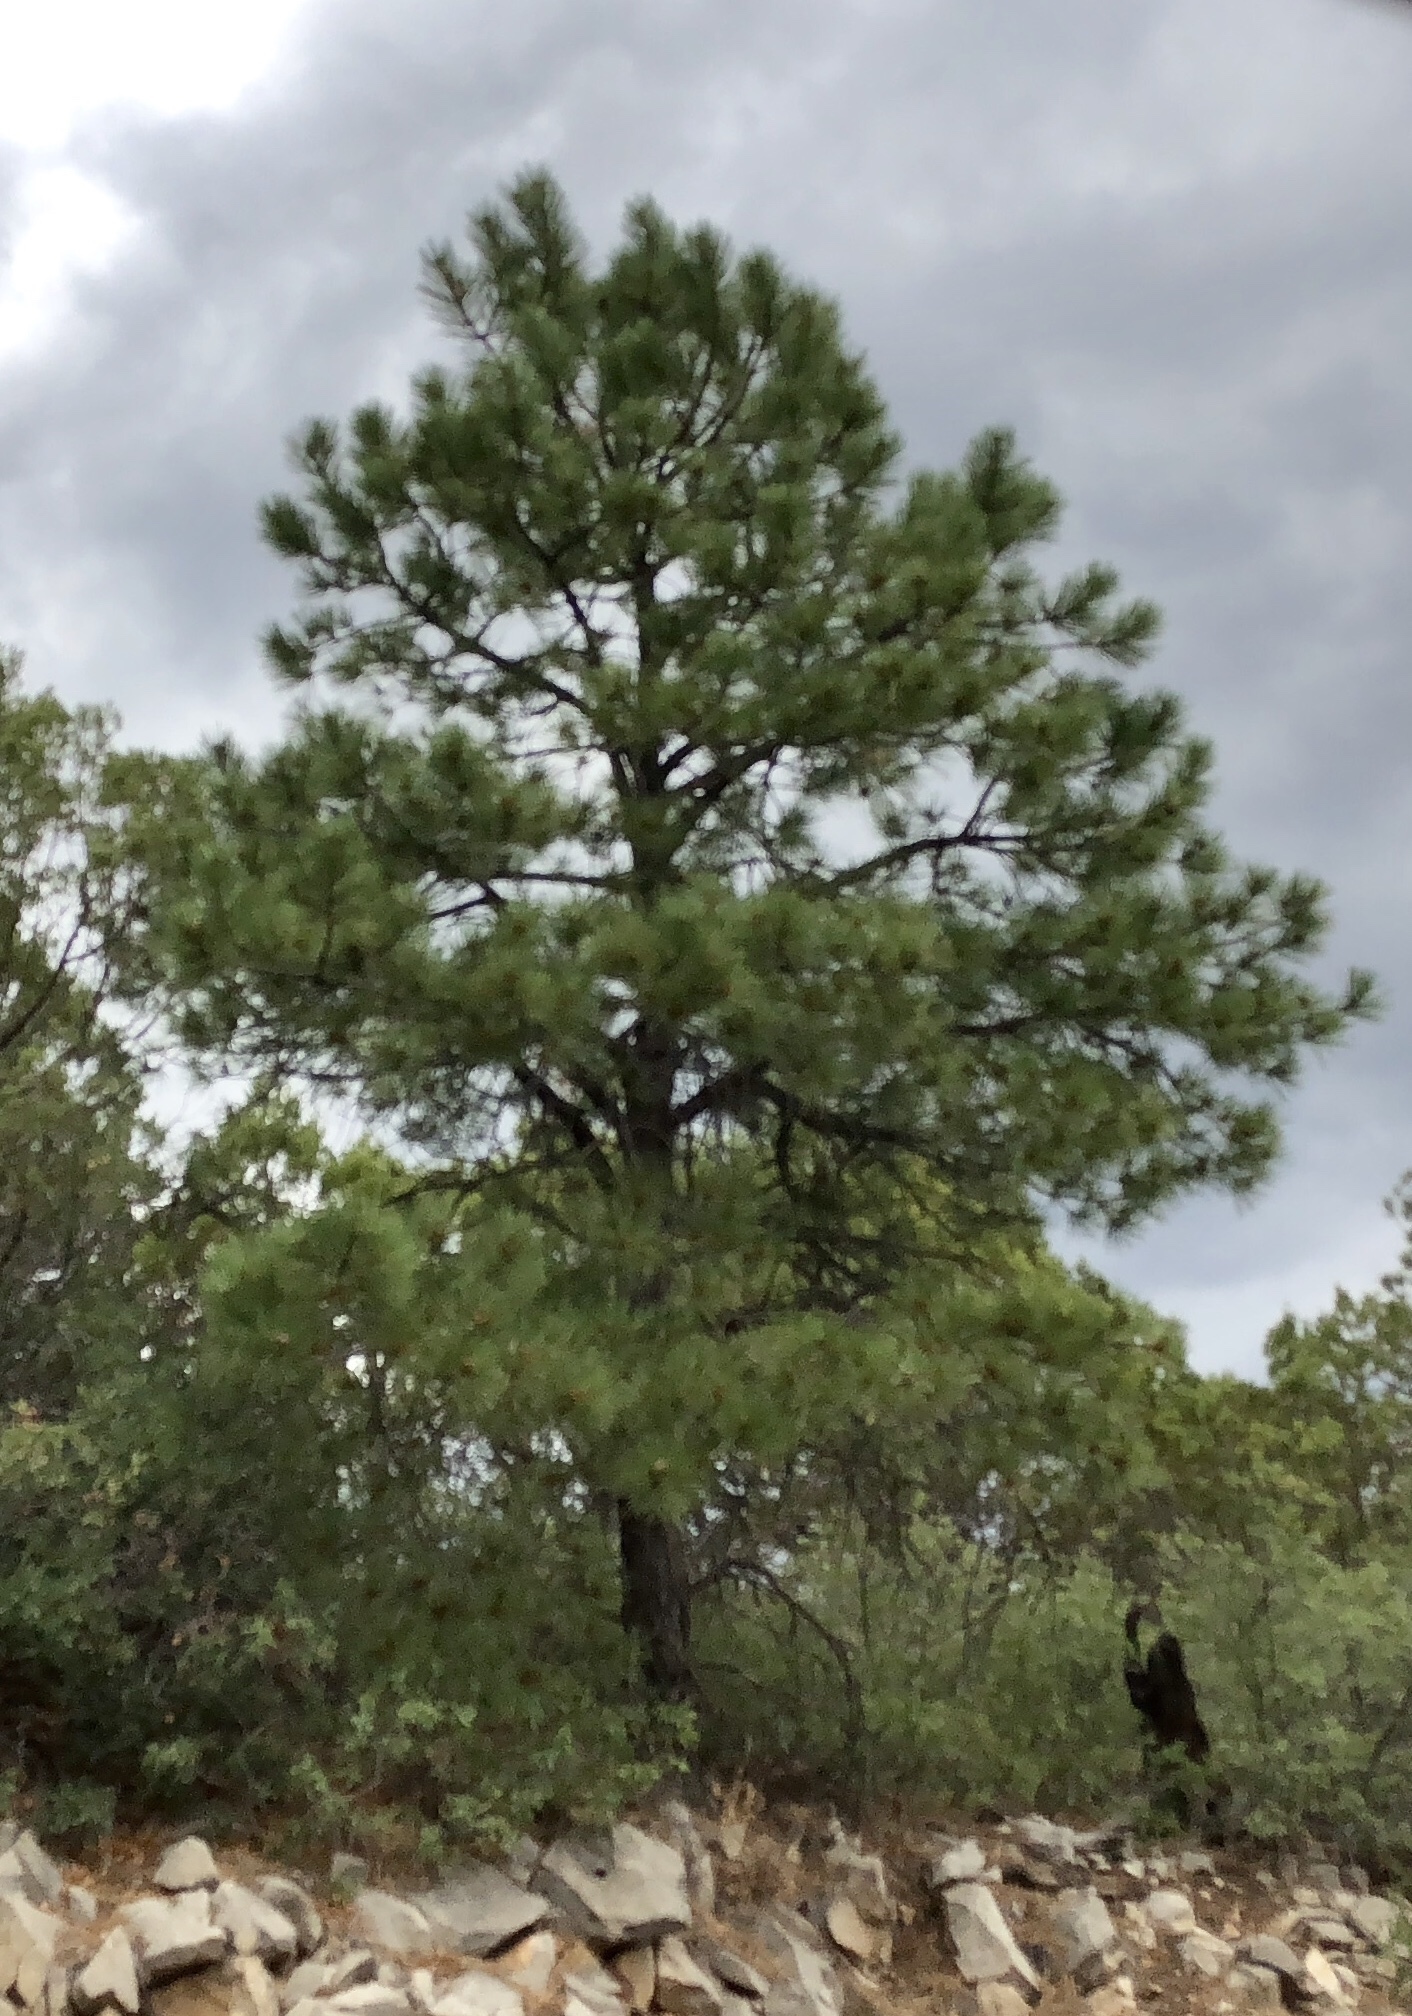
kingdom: Plantae
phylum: Tracheophyta
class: Pinopsida
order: Pinales
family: Pinaceae
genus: Pinus
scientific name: Pinus ponderosa
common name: Western yellow-pine
